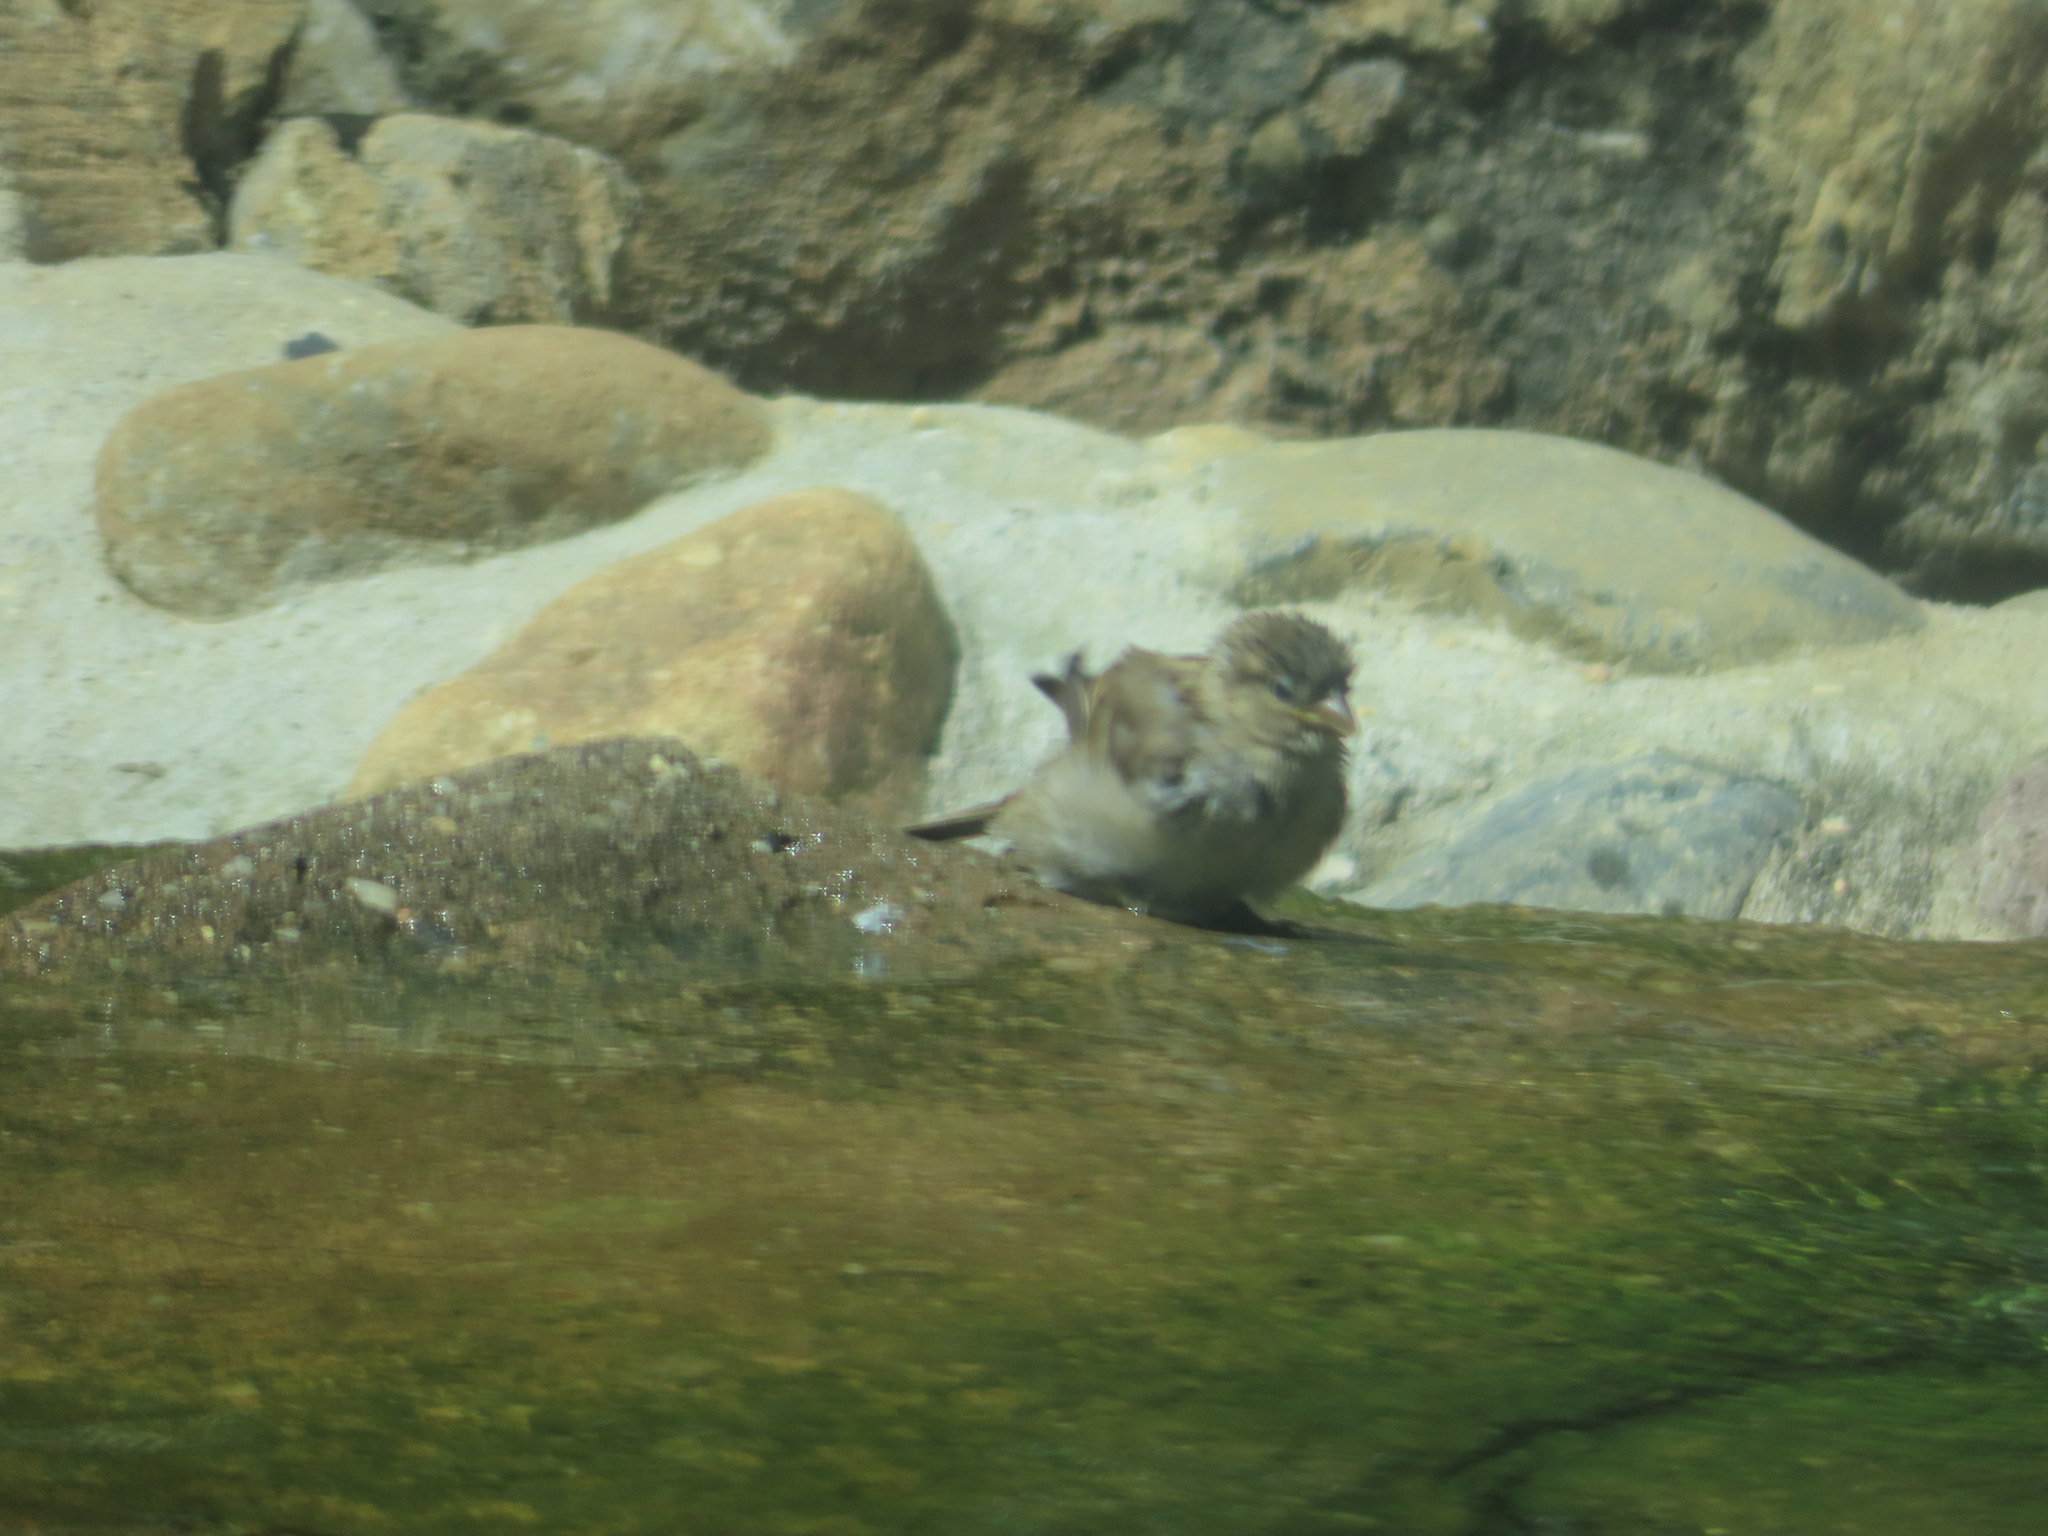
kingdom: Animalia
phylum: Chordata
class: Aves
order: Passeriformes
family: Passeridae
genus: Passer
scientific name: Passer domesticus
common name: House sparrow
